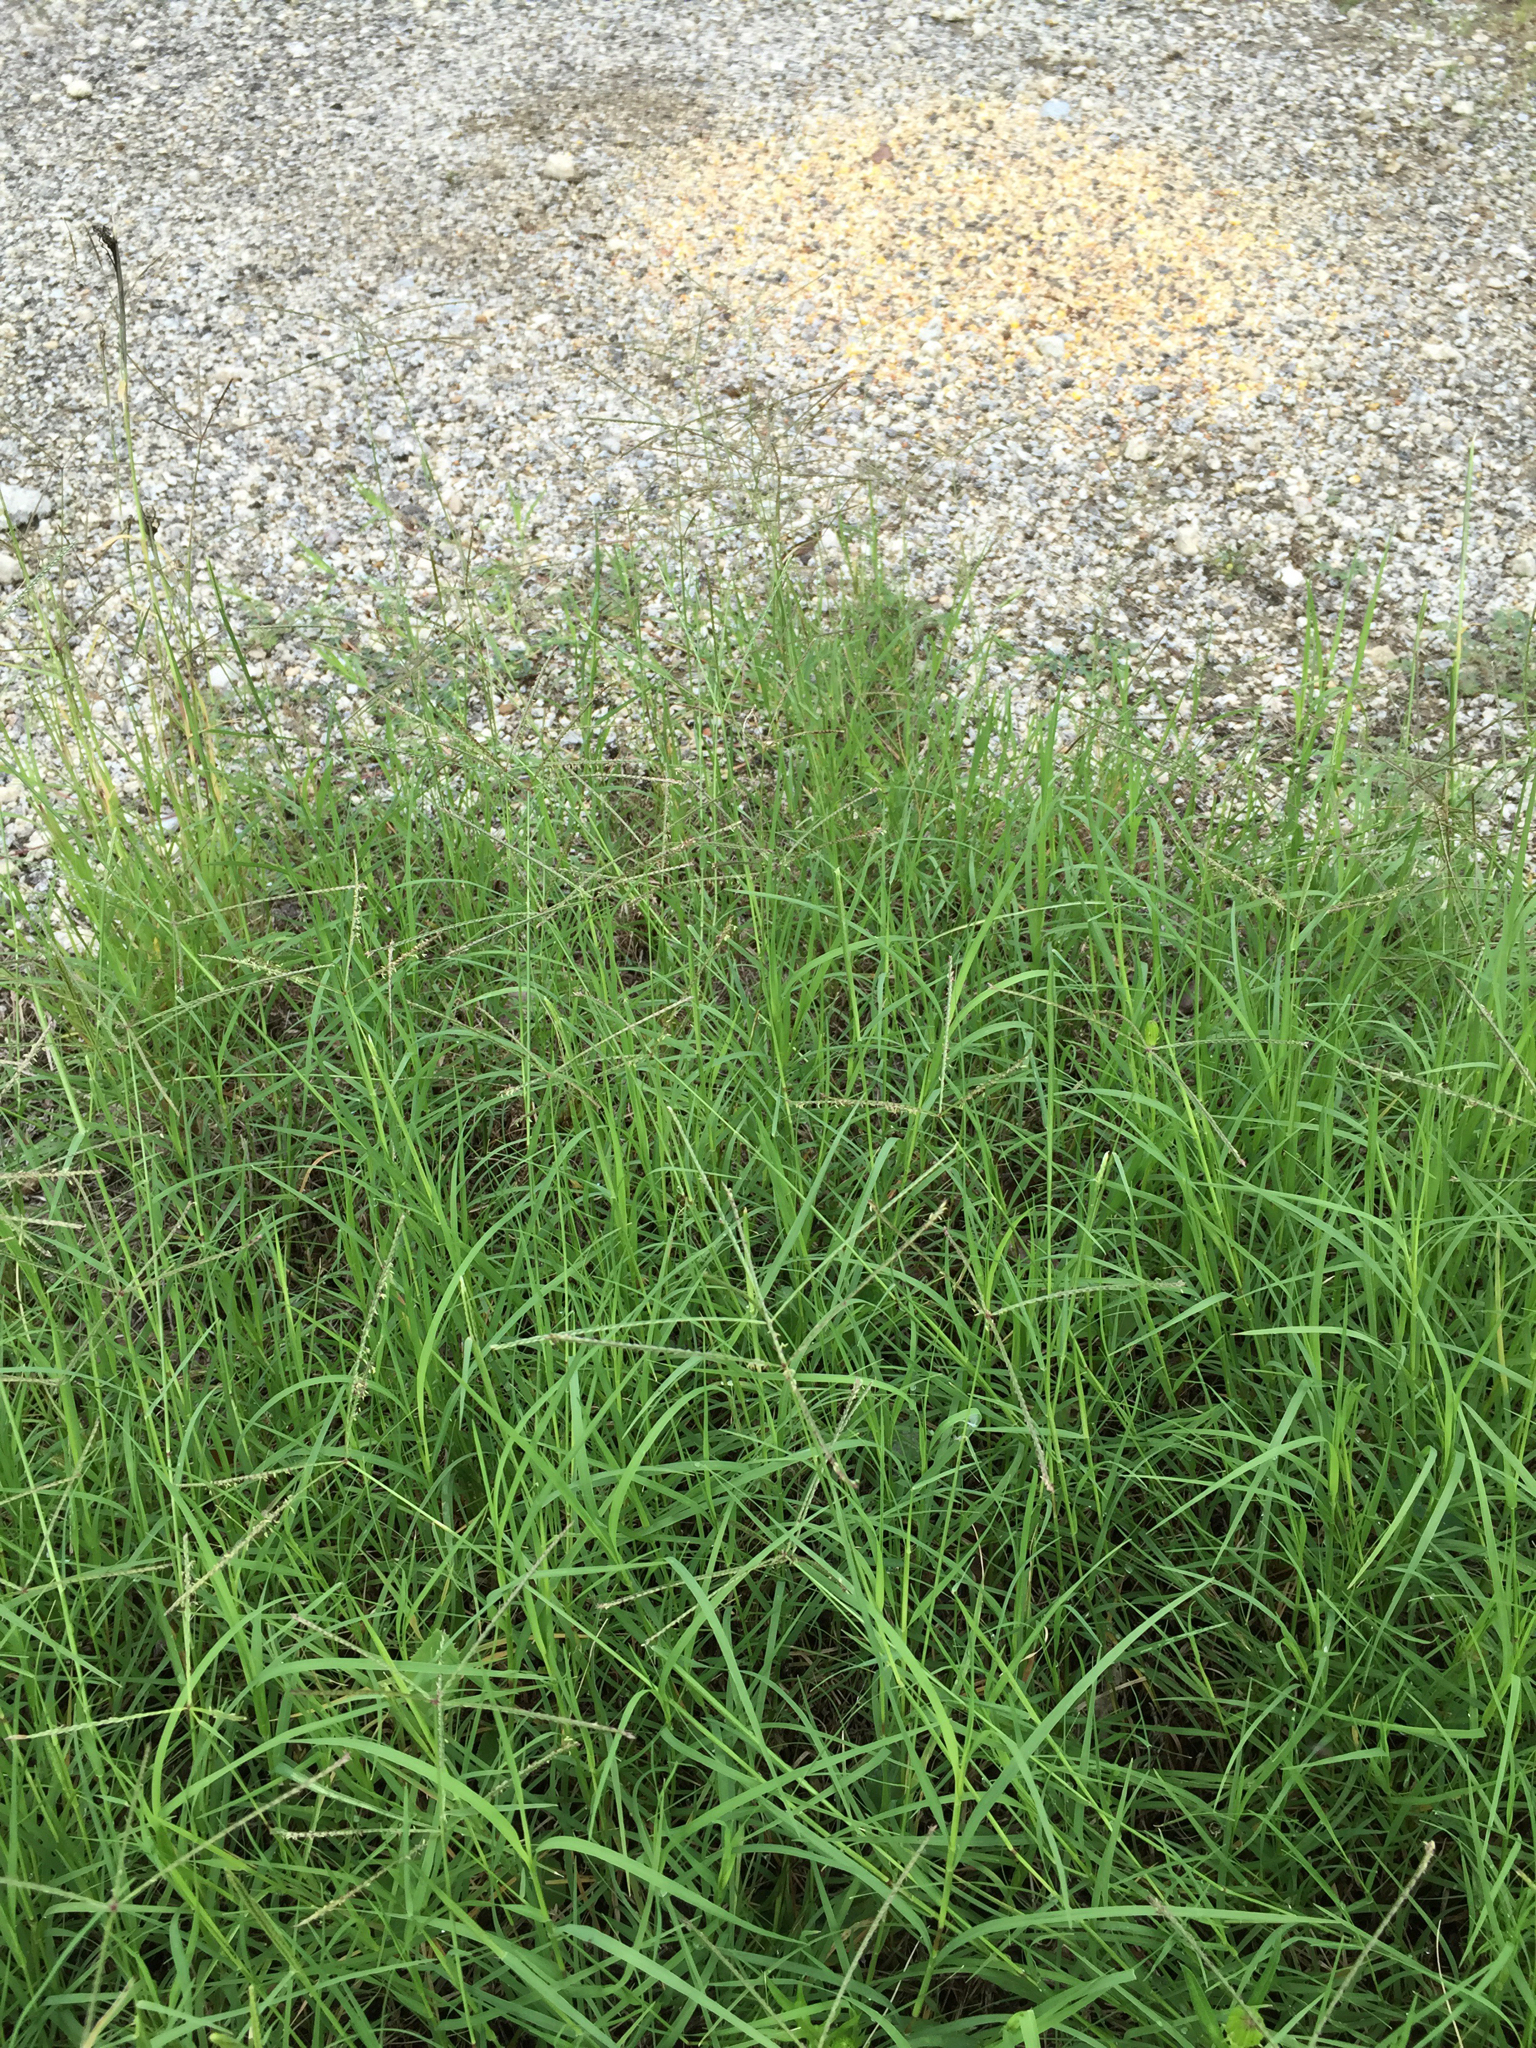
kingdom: Plantae
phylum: Tracheophyta
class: Liliopsida
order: Poales
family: Poaceae
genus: Cynodon
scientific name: Cynodon dactylon
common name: Bermuda grass
